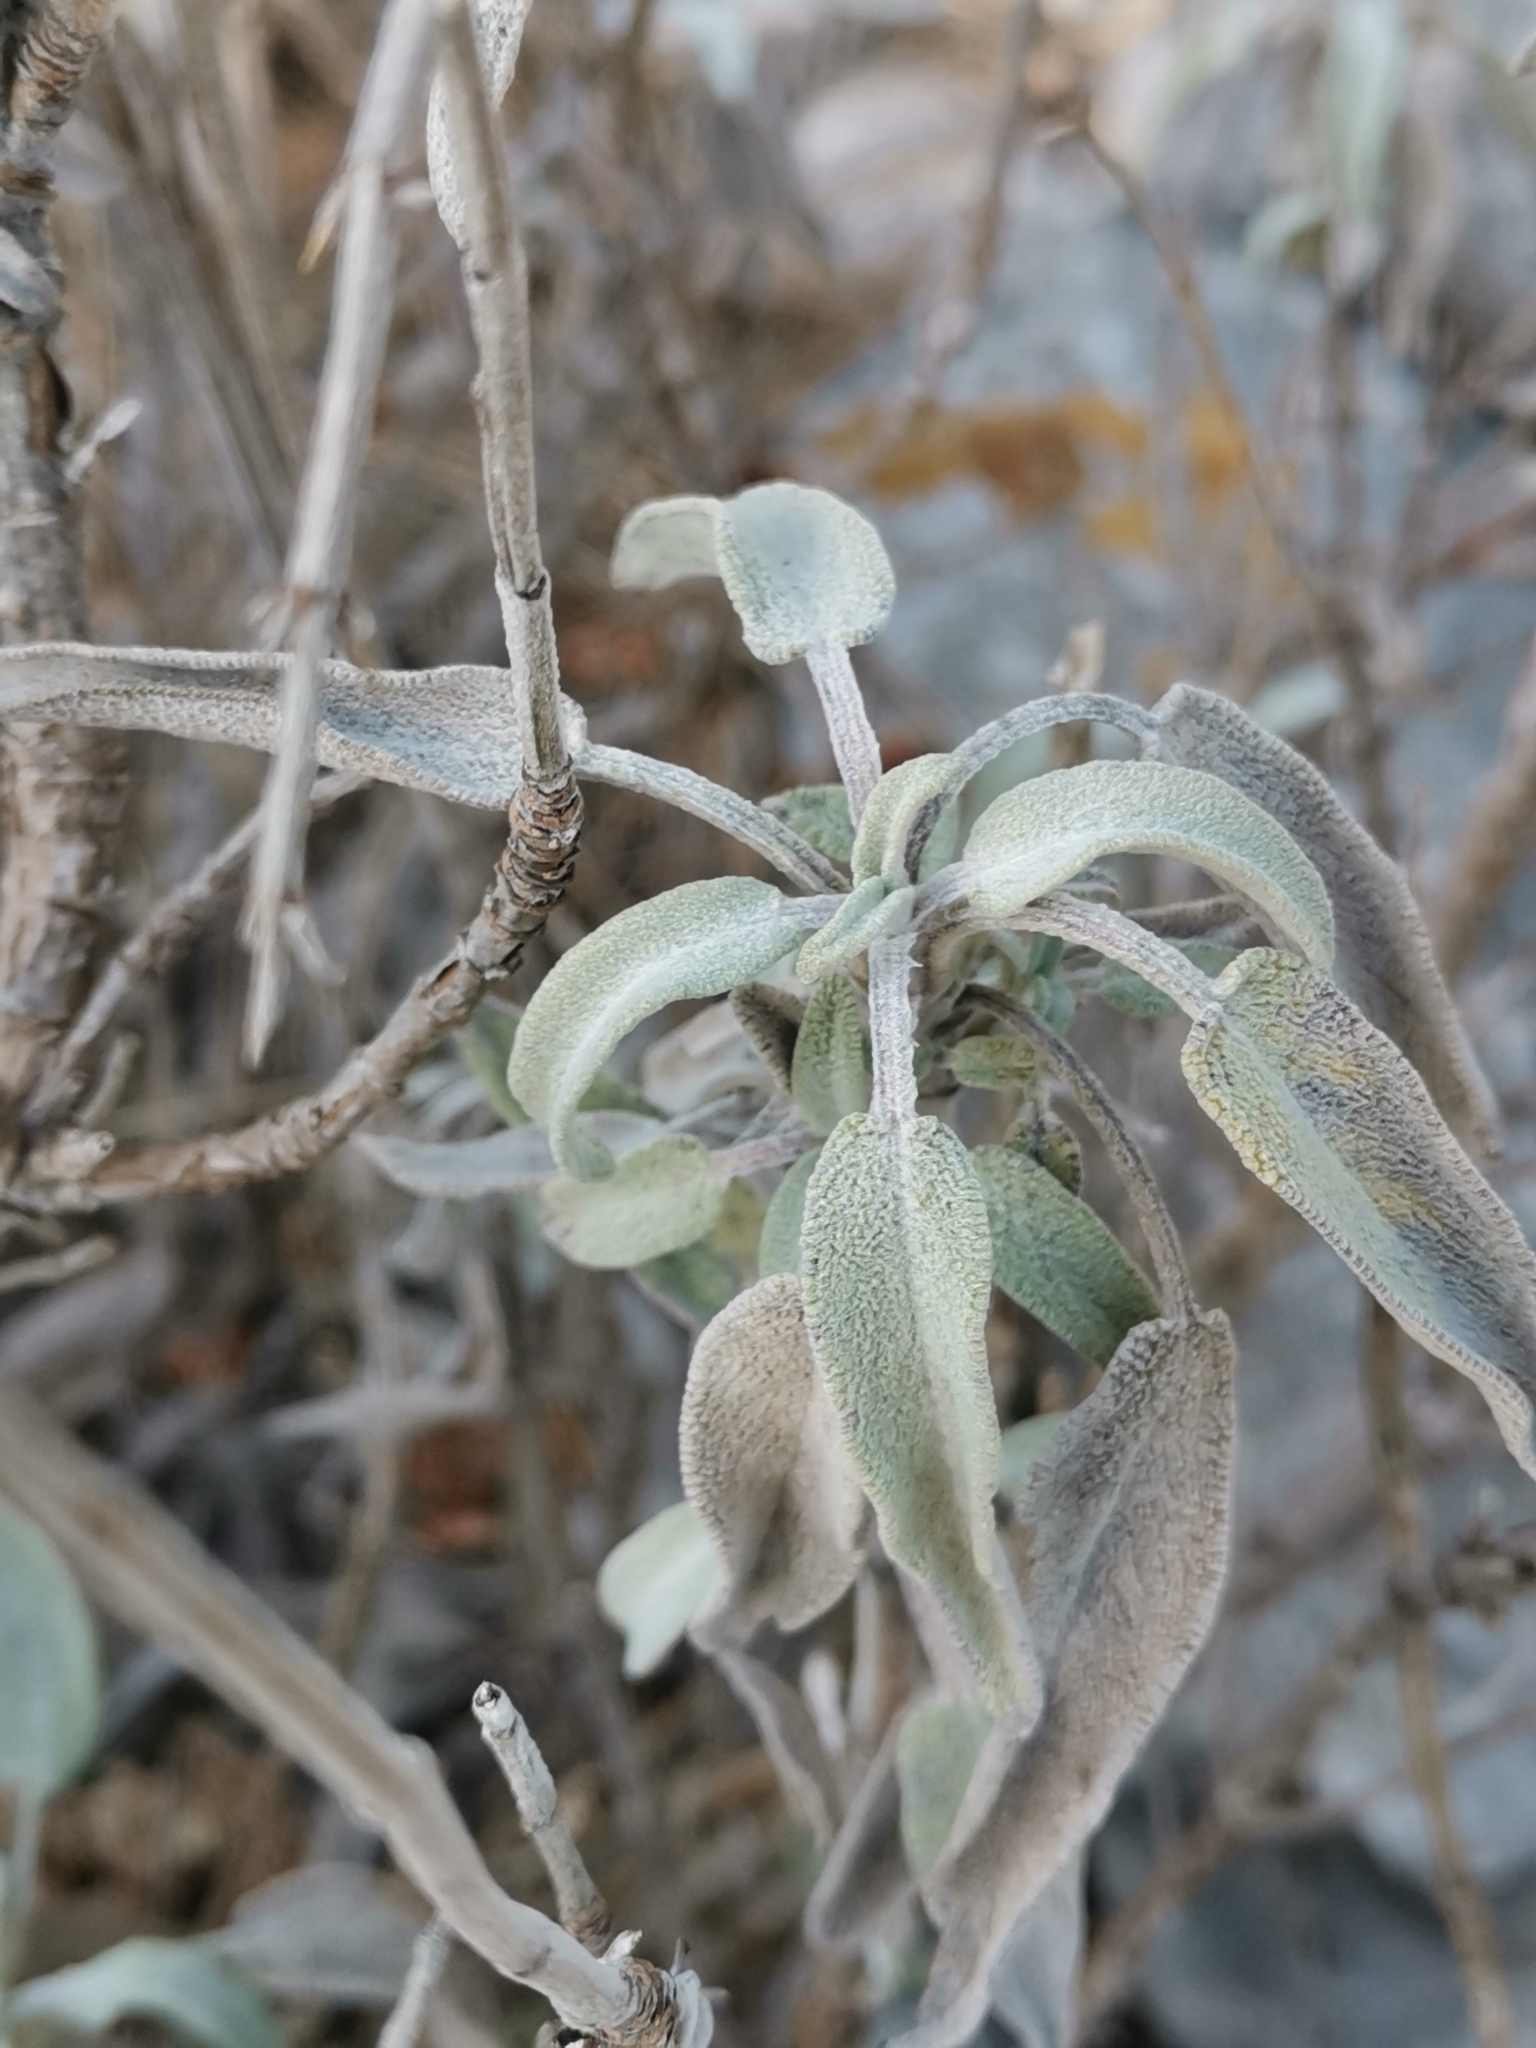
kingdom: Plantae
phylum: Tracheophyta
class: Magnoliopsida
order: Lamiales
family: Lamiaceae
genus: Salvia
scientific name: Salvia officinalis
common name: Sage
